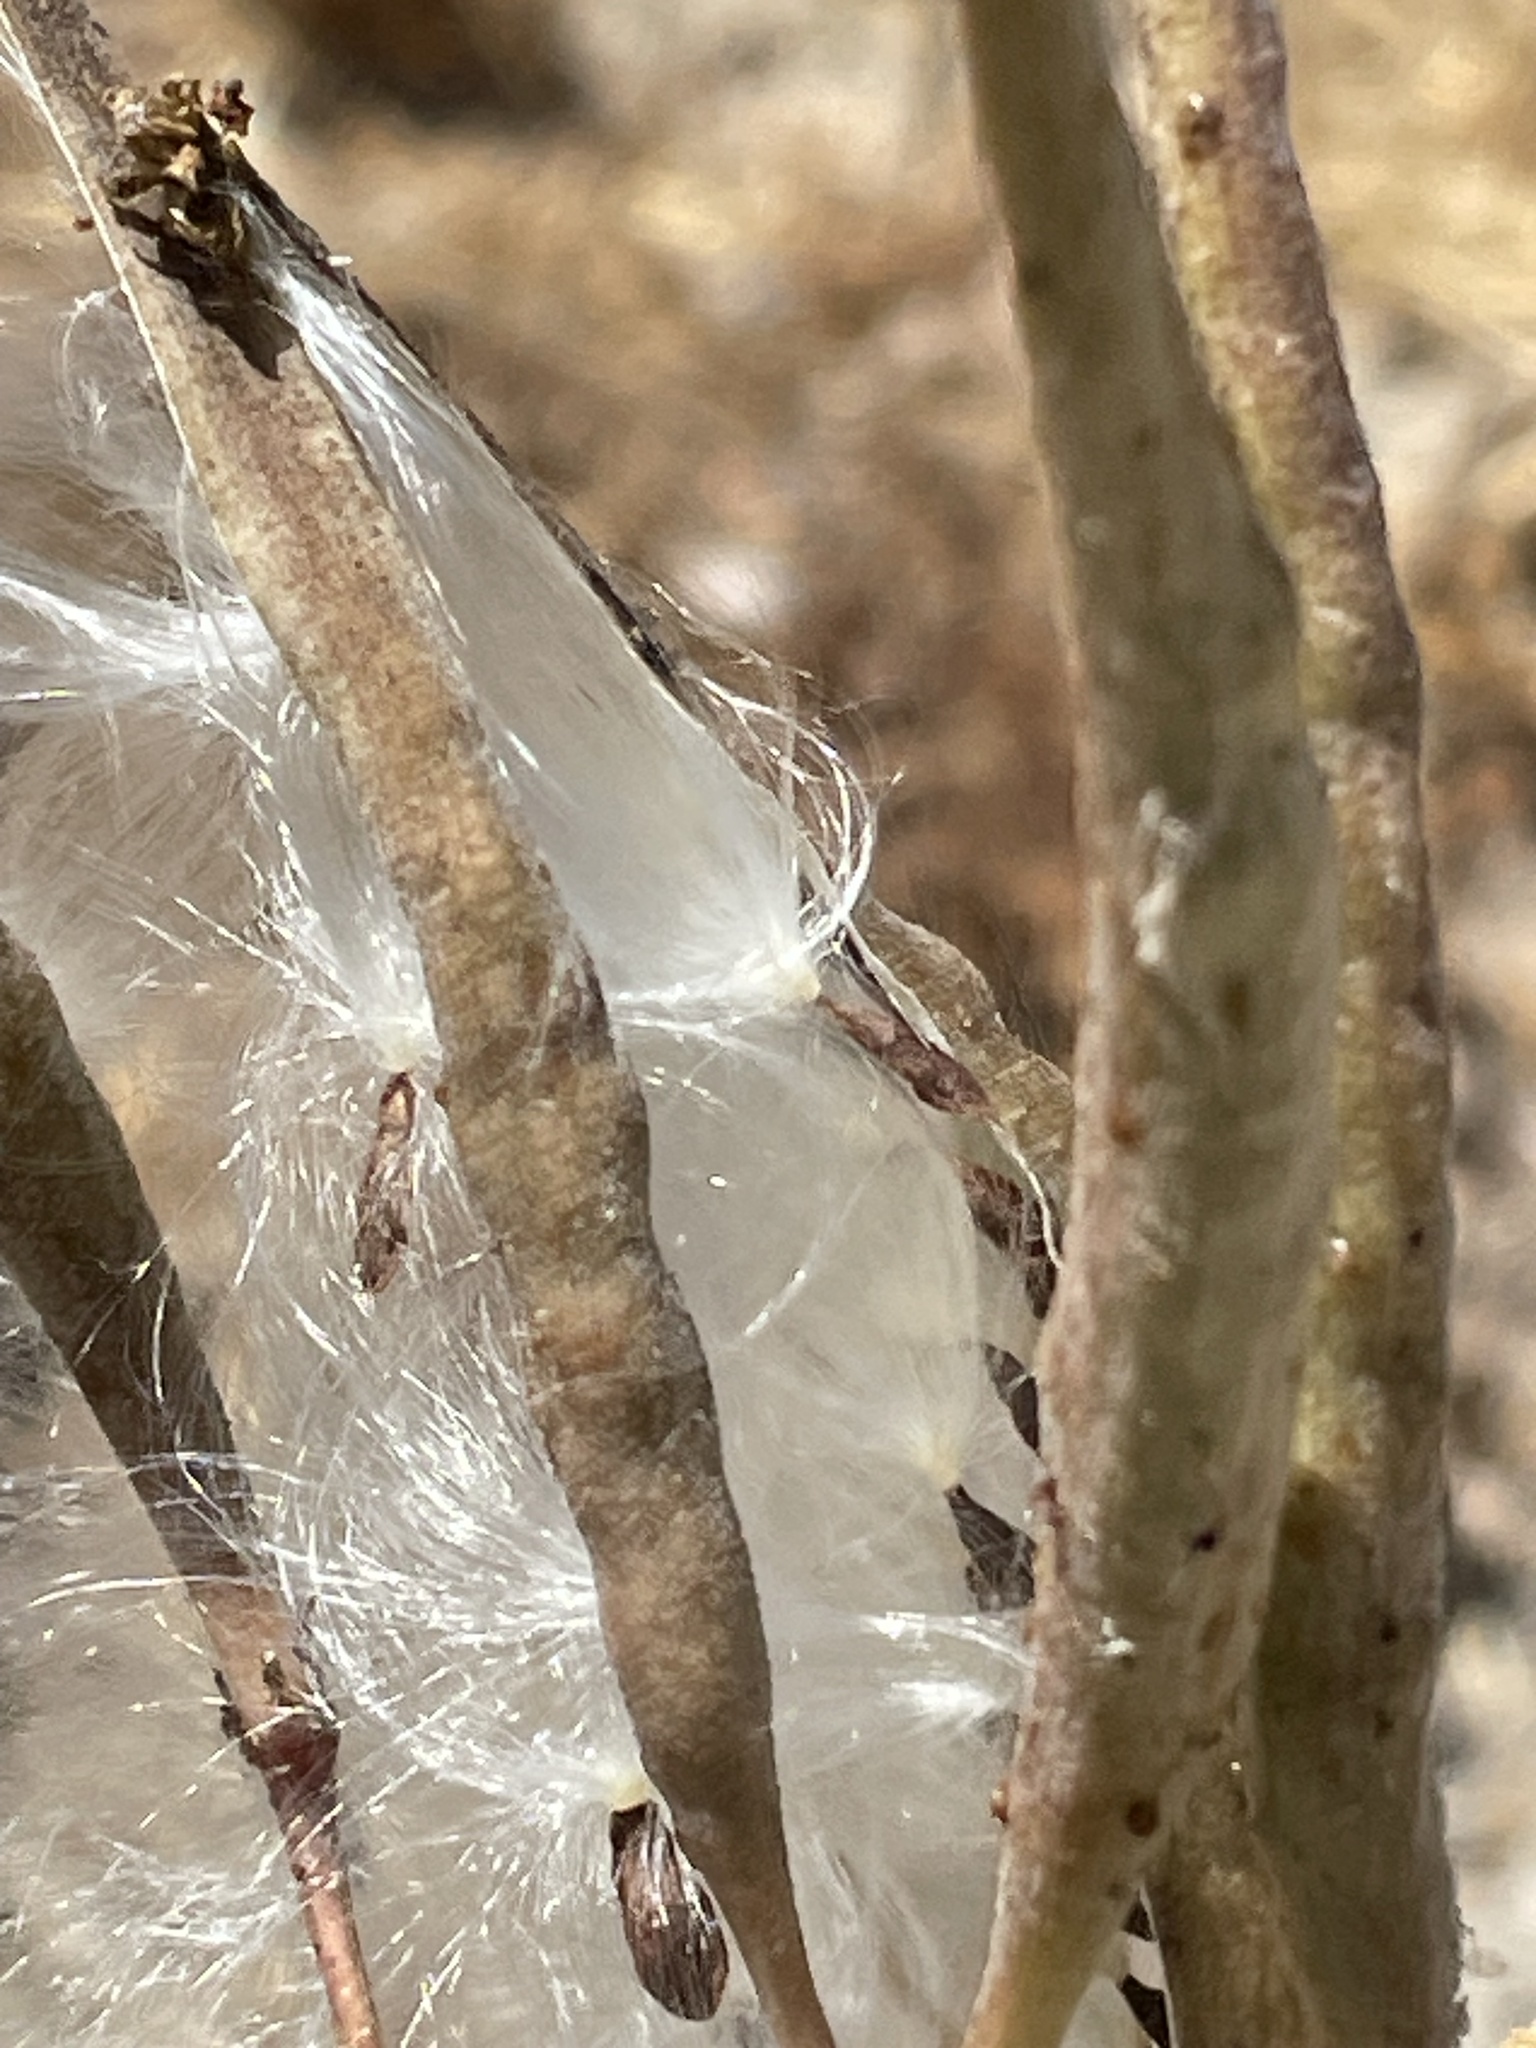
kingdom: Plantae
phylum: Tracheophyta
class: Magnoliopsida
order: Gentianales
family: Apocynaceae
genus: Asclepias
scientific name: Asclepias fascicularis
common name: Mexican milkweed
